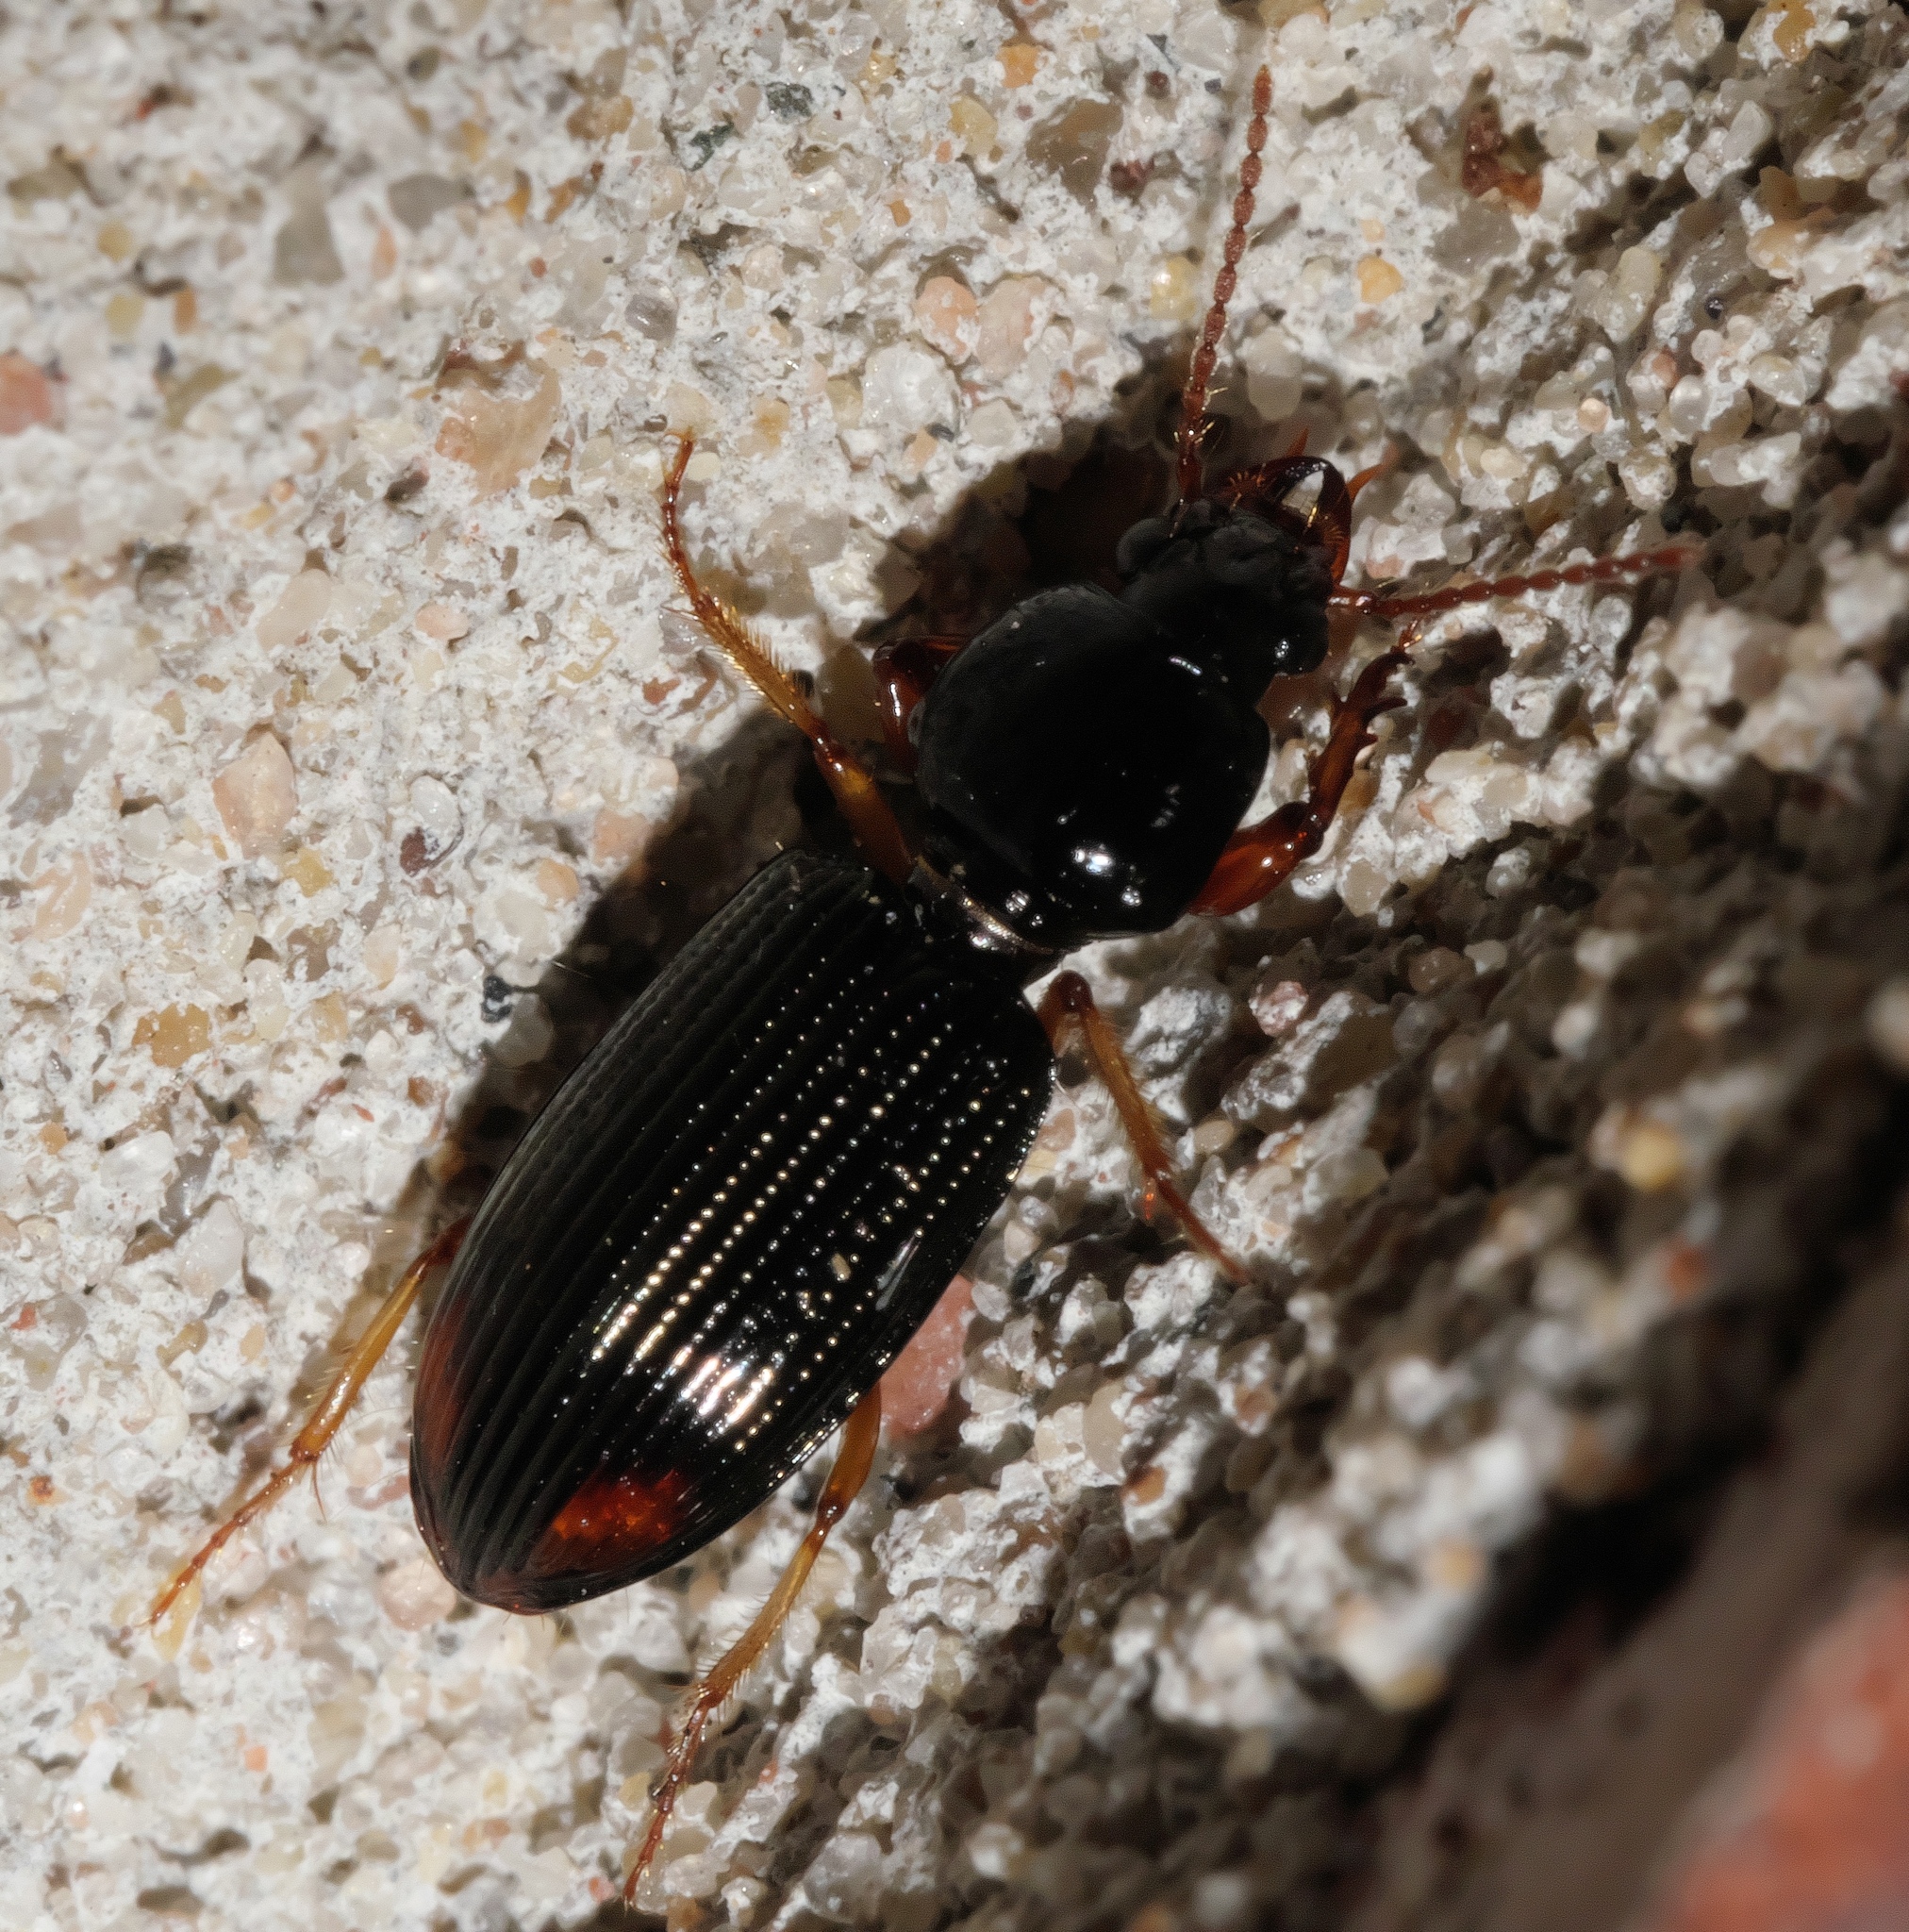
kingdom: Animalia
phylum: Arthropoda
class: Insecta
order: Coleoptera
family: Carabidae
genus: Aspidoglossa
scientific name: Aspidoglossa subangulata
